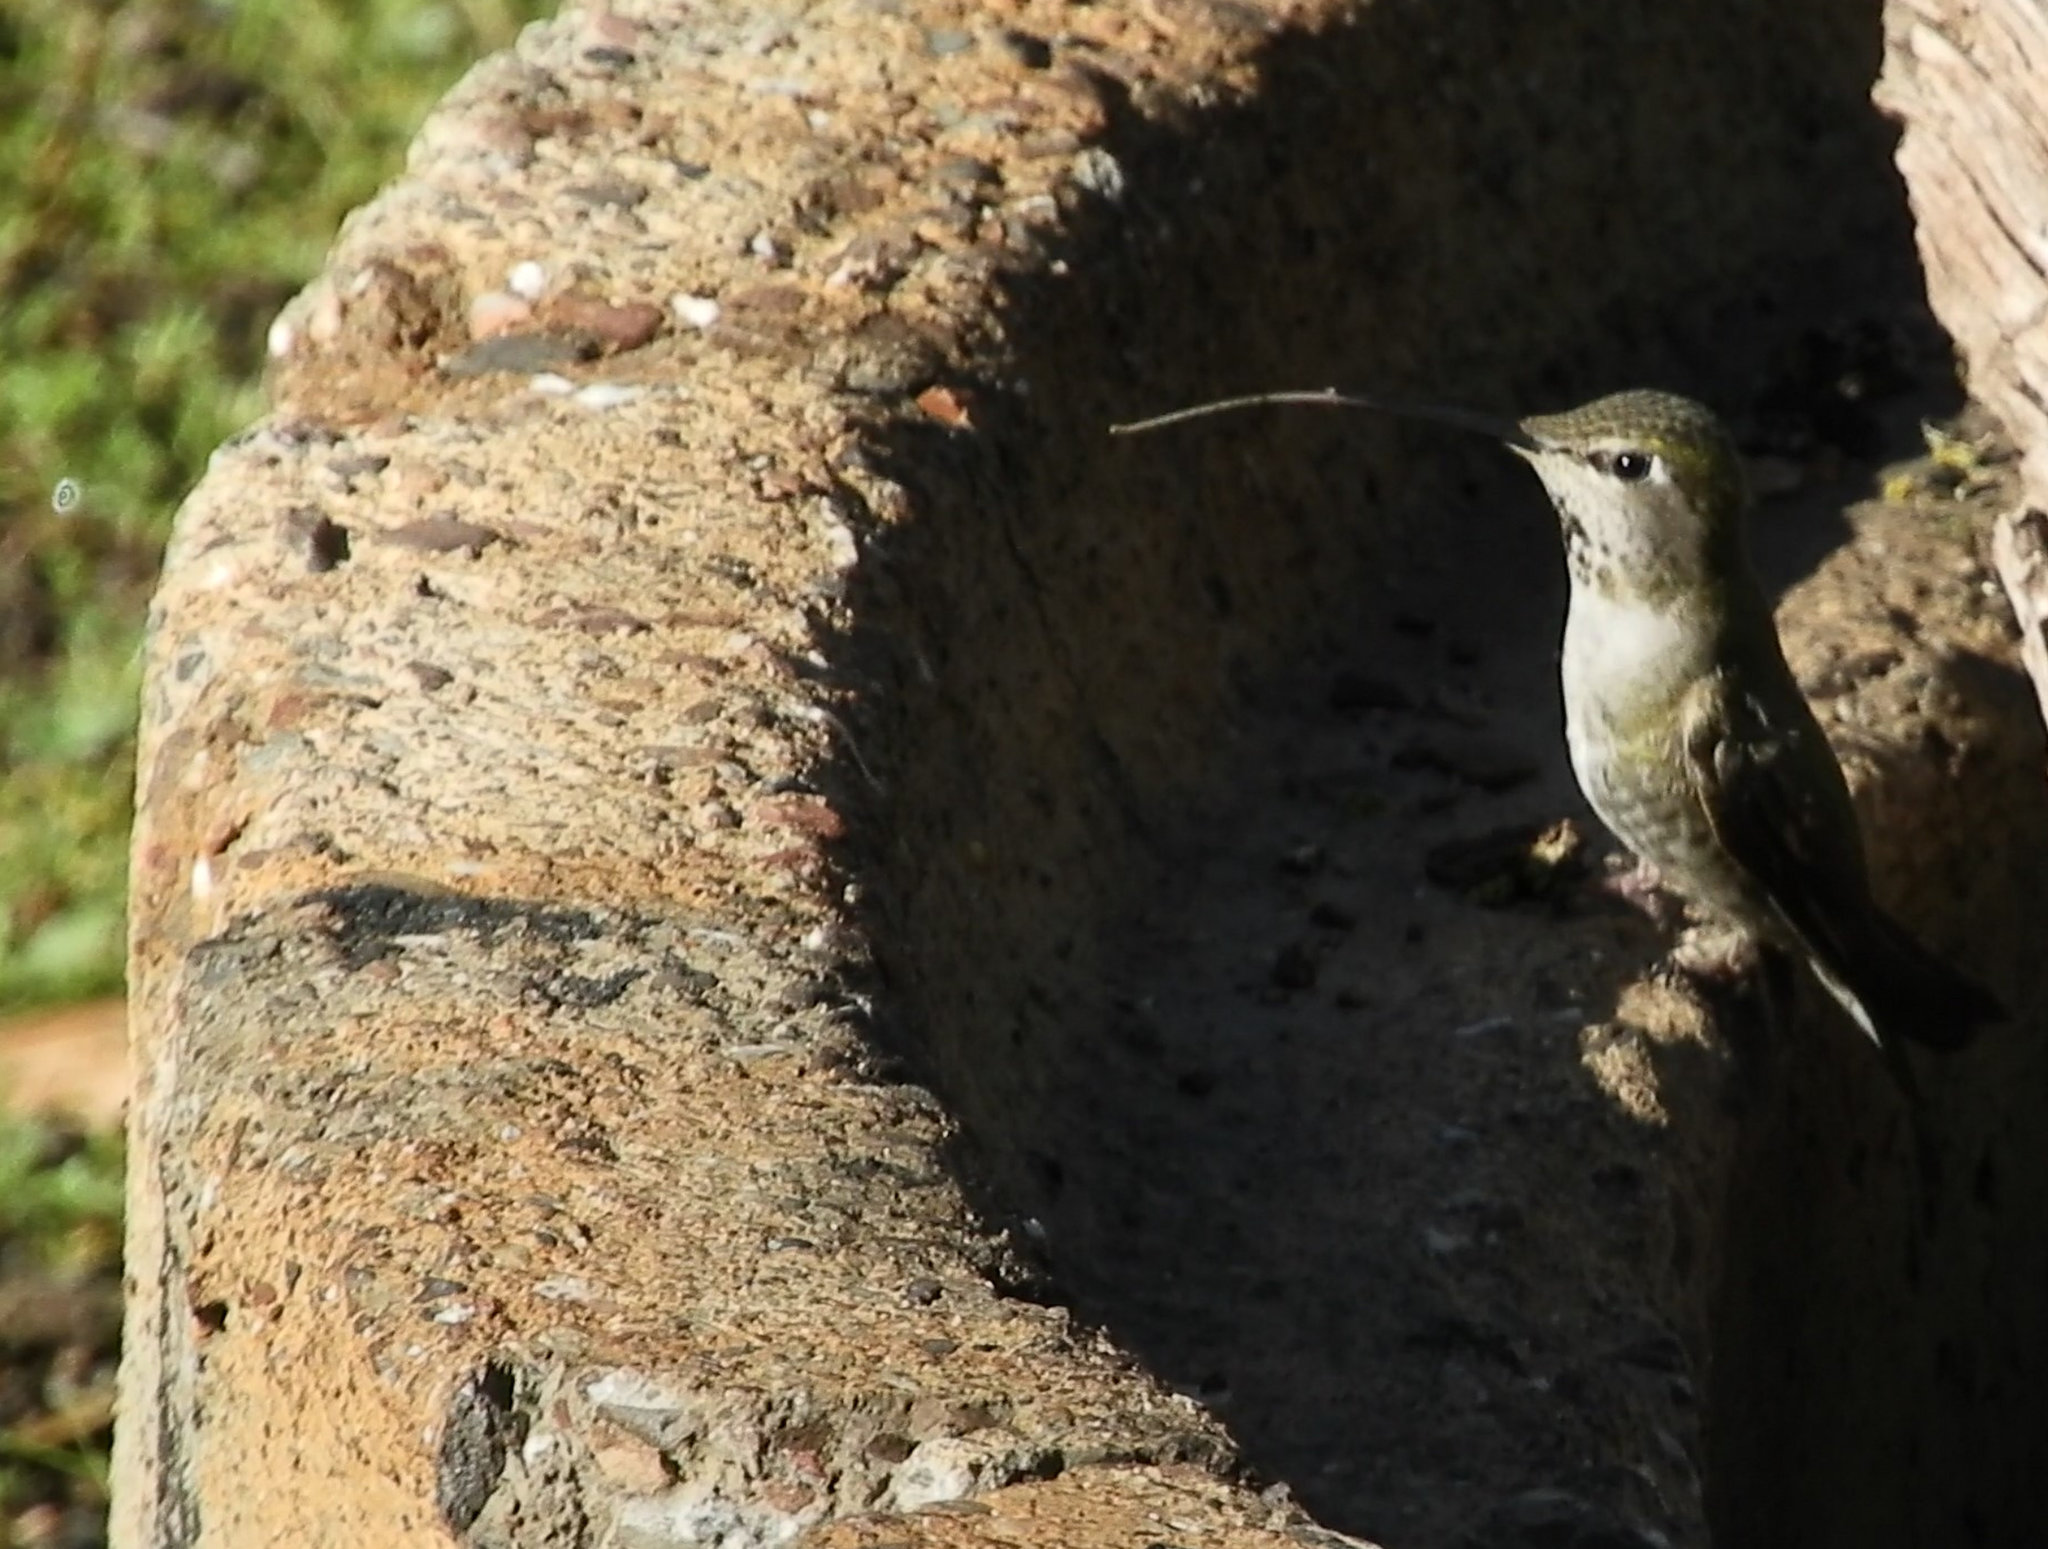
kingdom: Animalia
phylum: Chordata
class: Aves
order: Apodiformes
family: Trochilidae
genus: Calypte
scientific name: Calypte anna
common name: Anna's hummingbird
